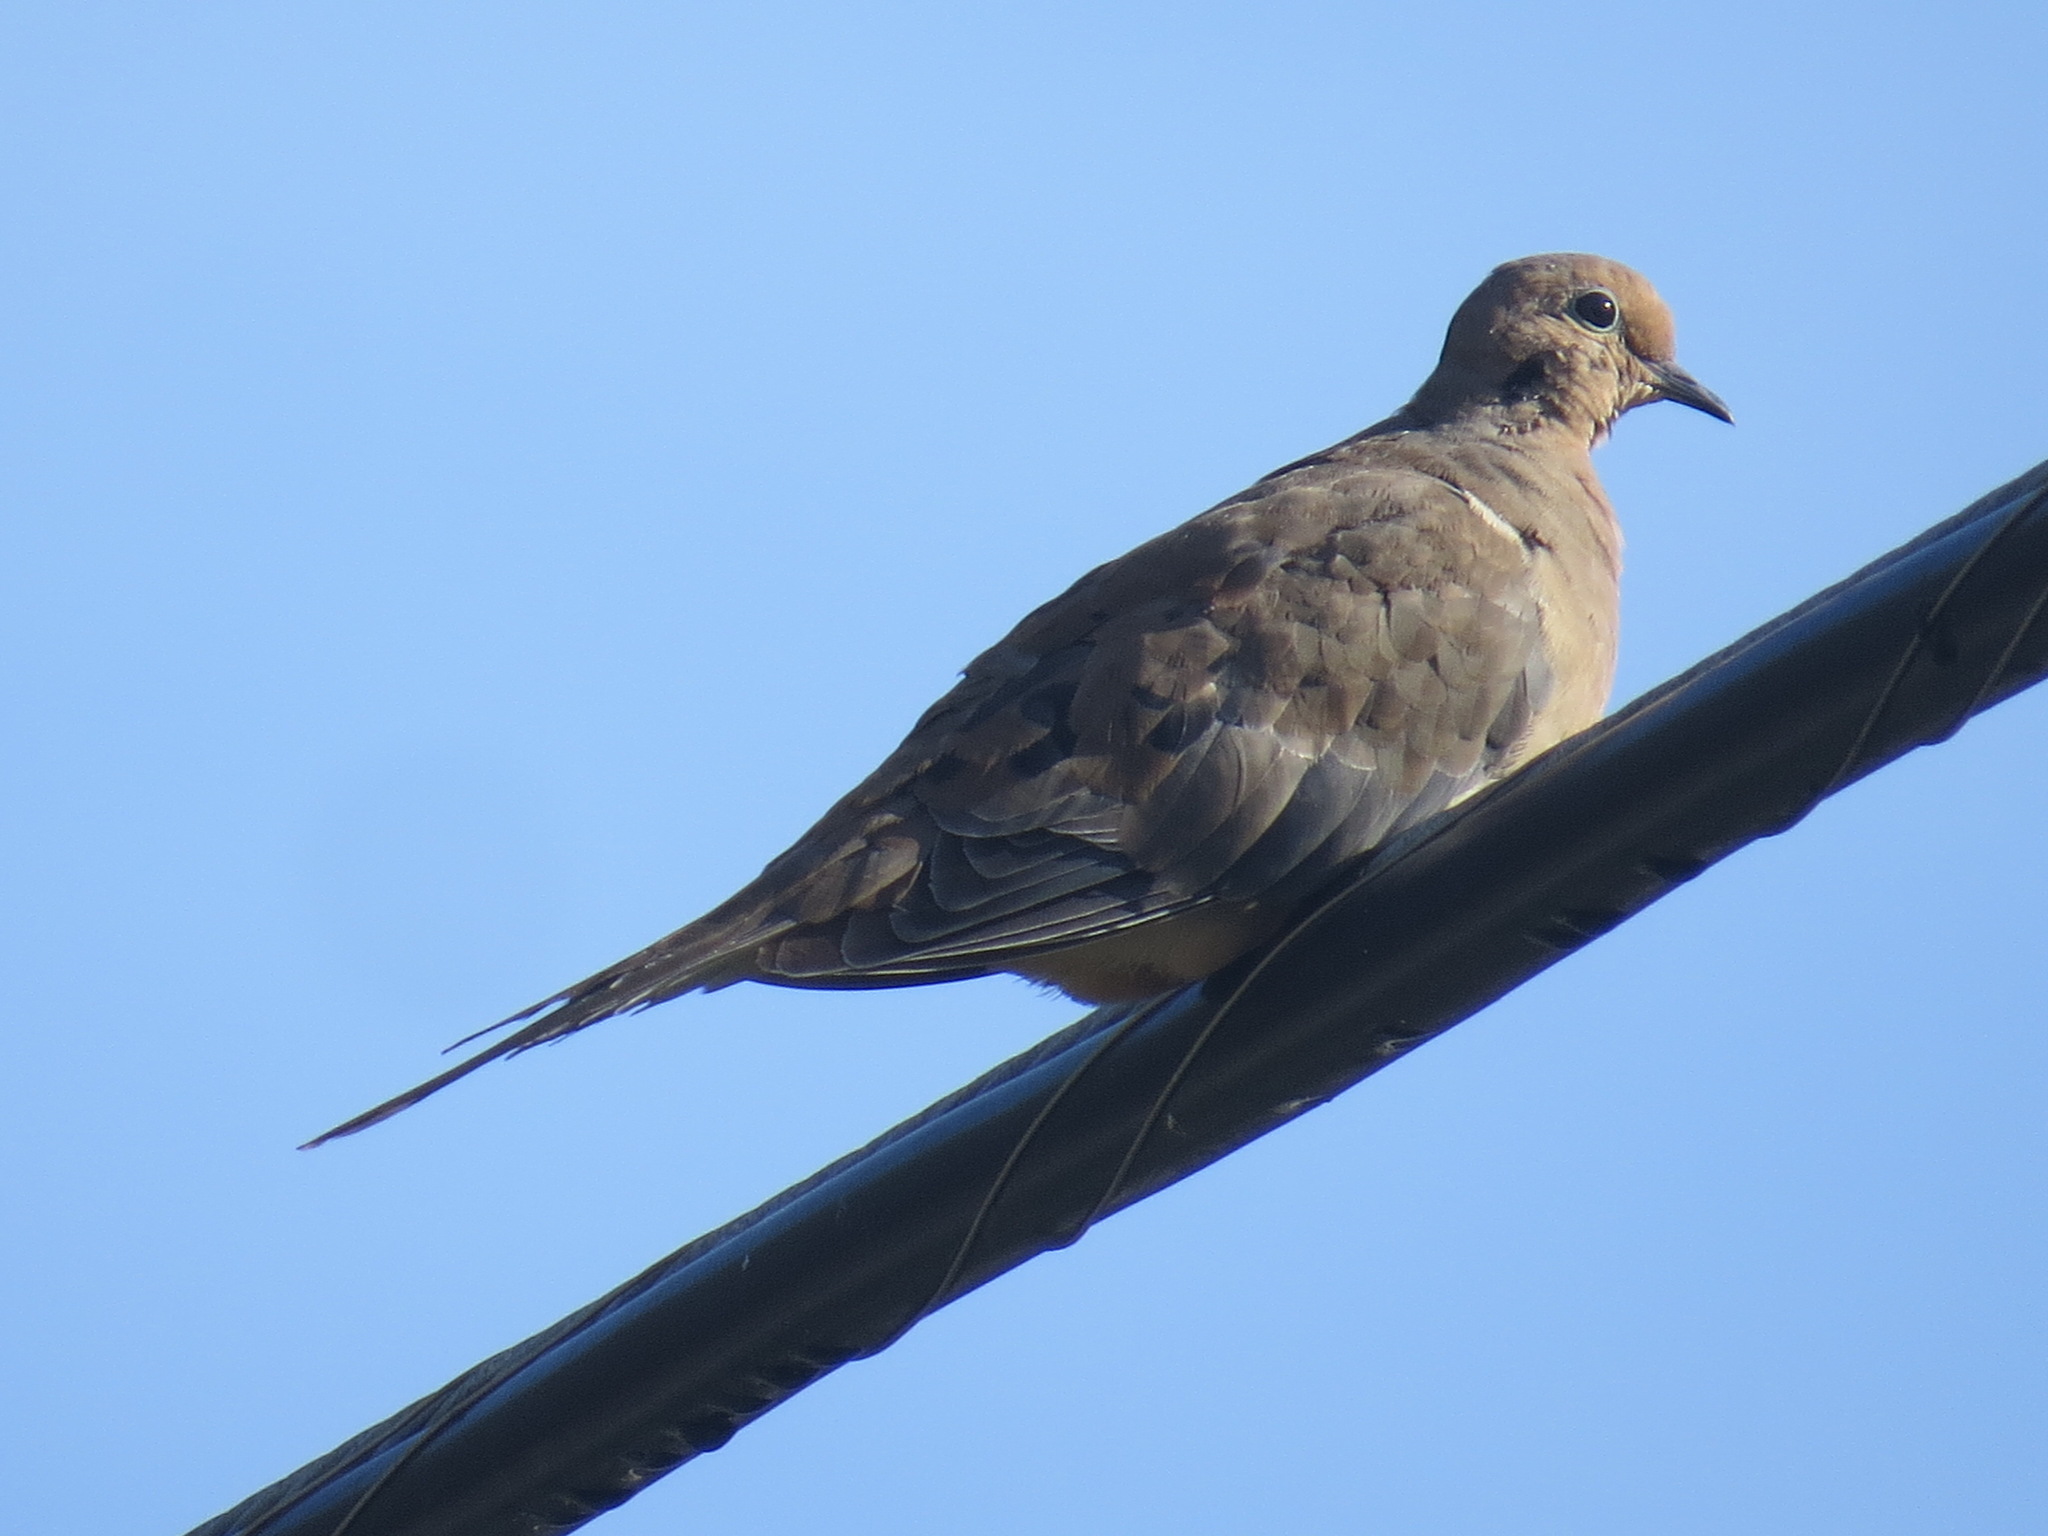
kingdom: Animalia
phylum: Chordata
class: Aves
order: Columbiformes
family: Columbidae
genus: Zenaida
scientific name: Zenaida macroura
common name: Mourning dove
